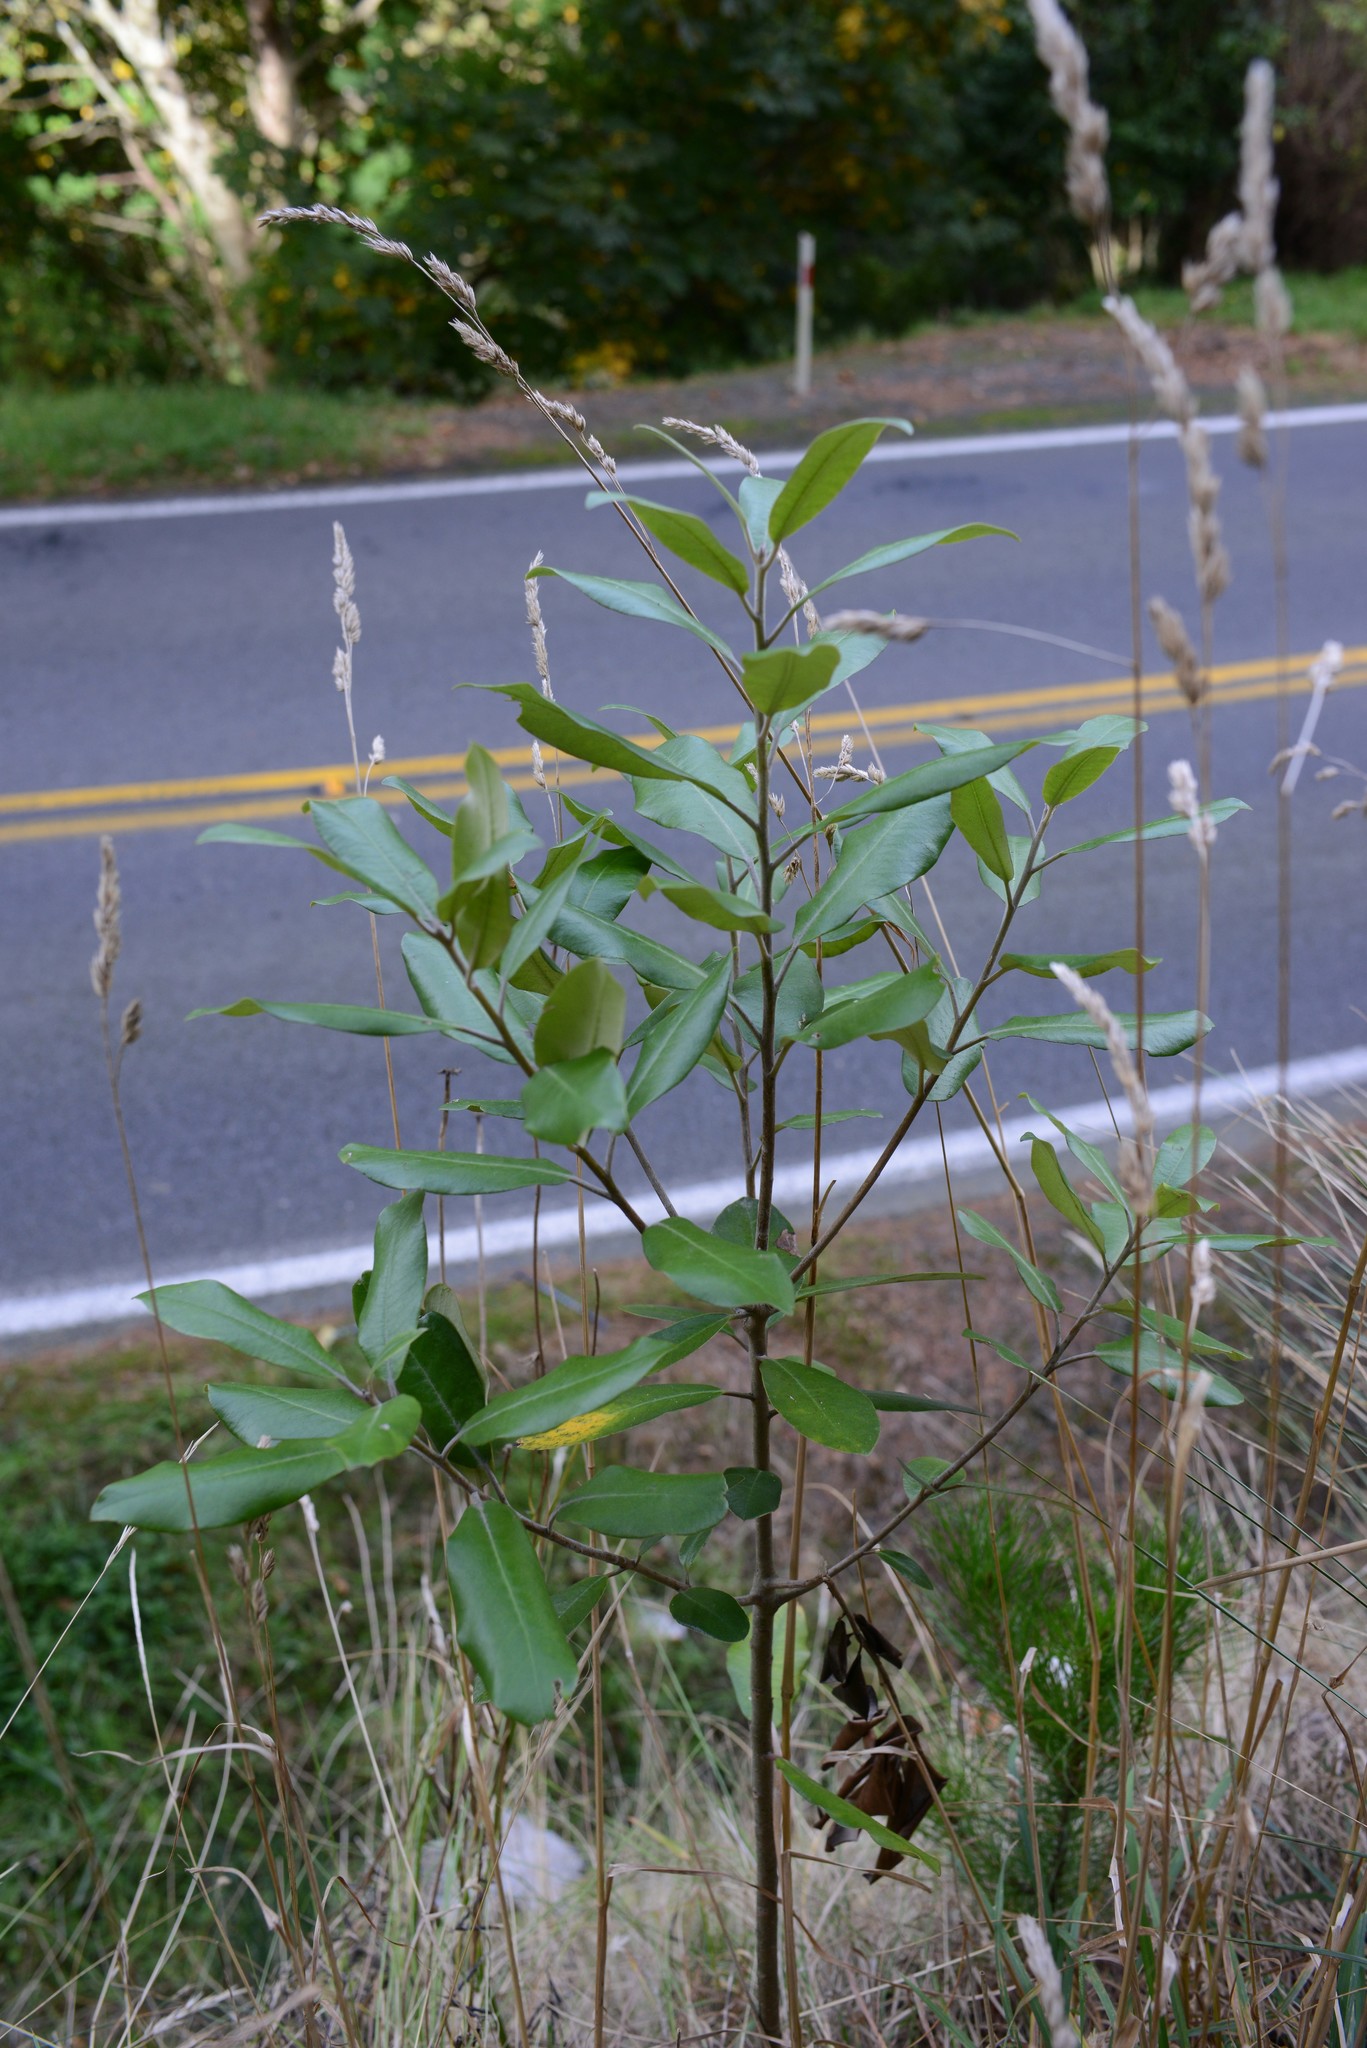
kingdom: Plantae
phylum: Tracheophyta
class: Magnoliopsida
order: Apiales
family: Pittosporaceae
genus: Pittosporum
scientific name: Pittosporum ralphii
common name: Ralph's desertwillow
